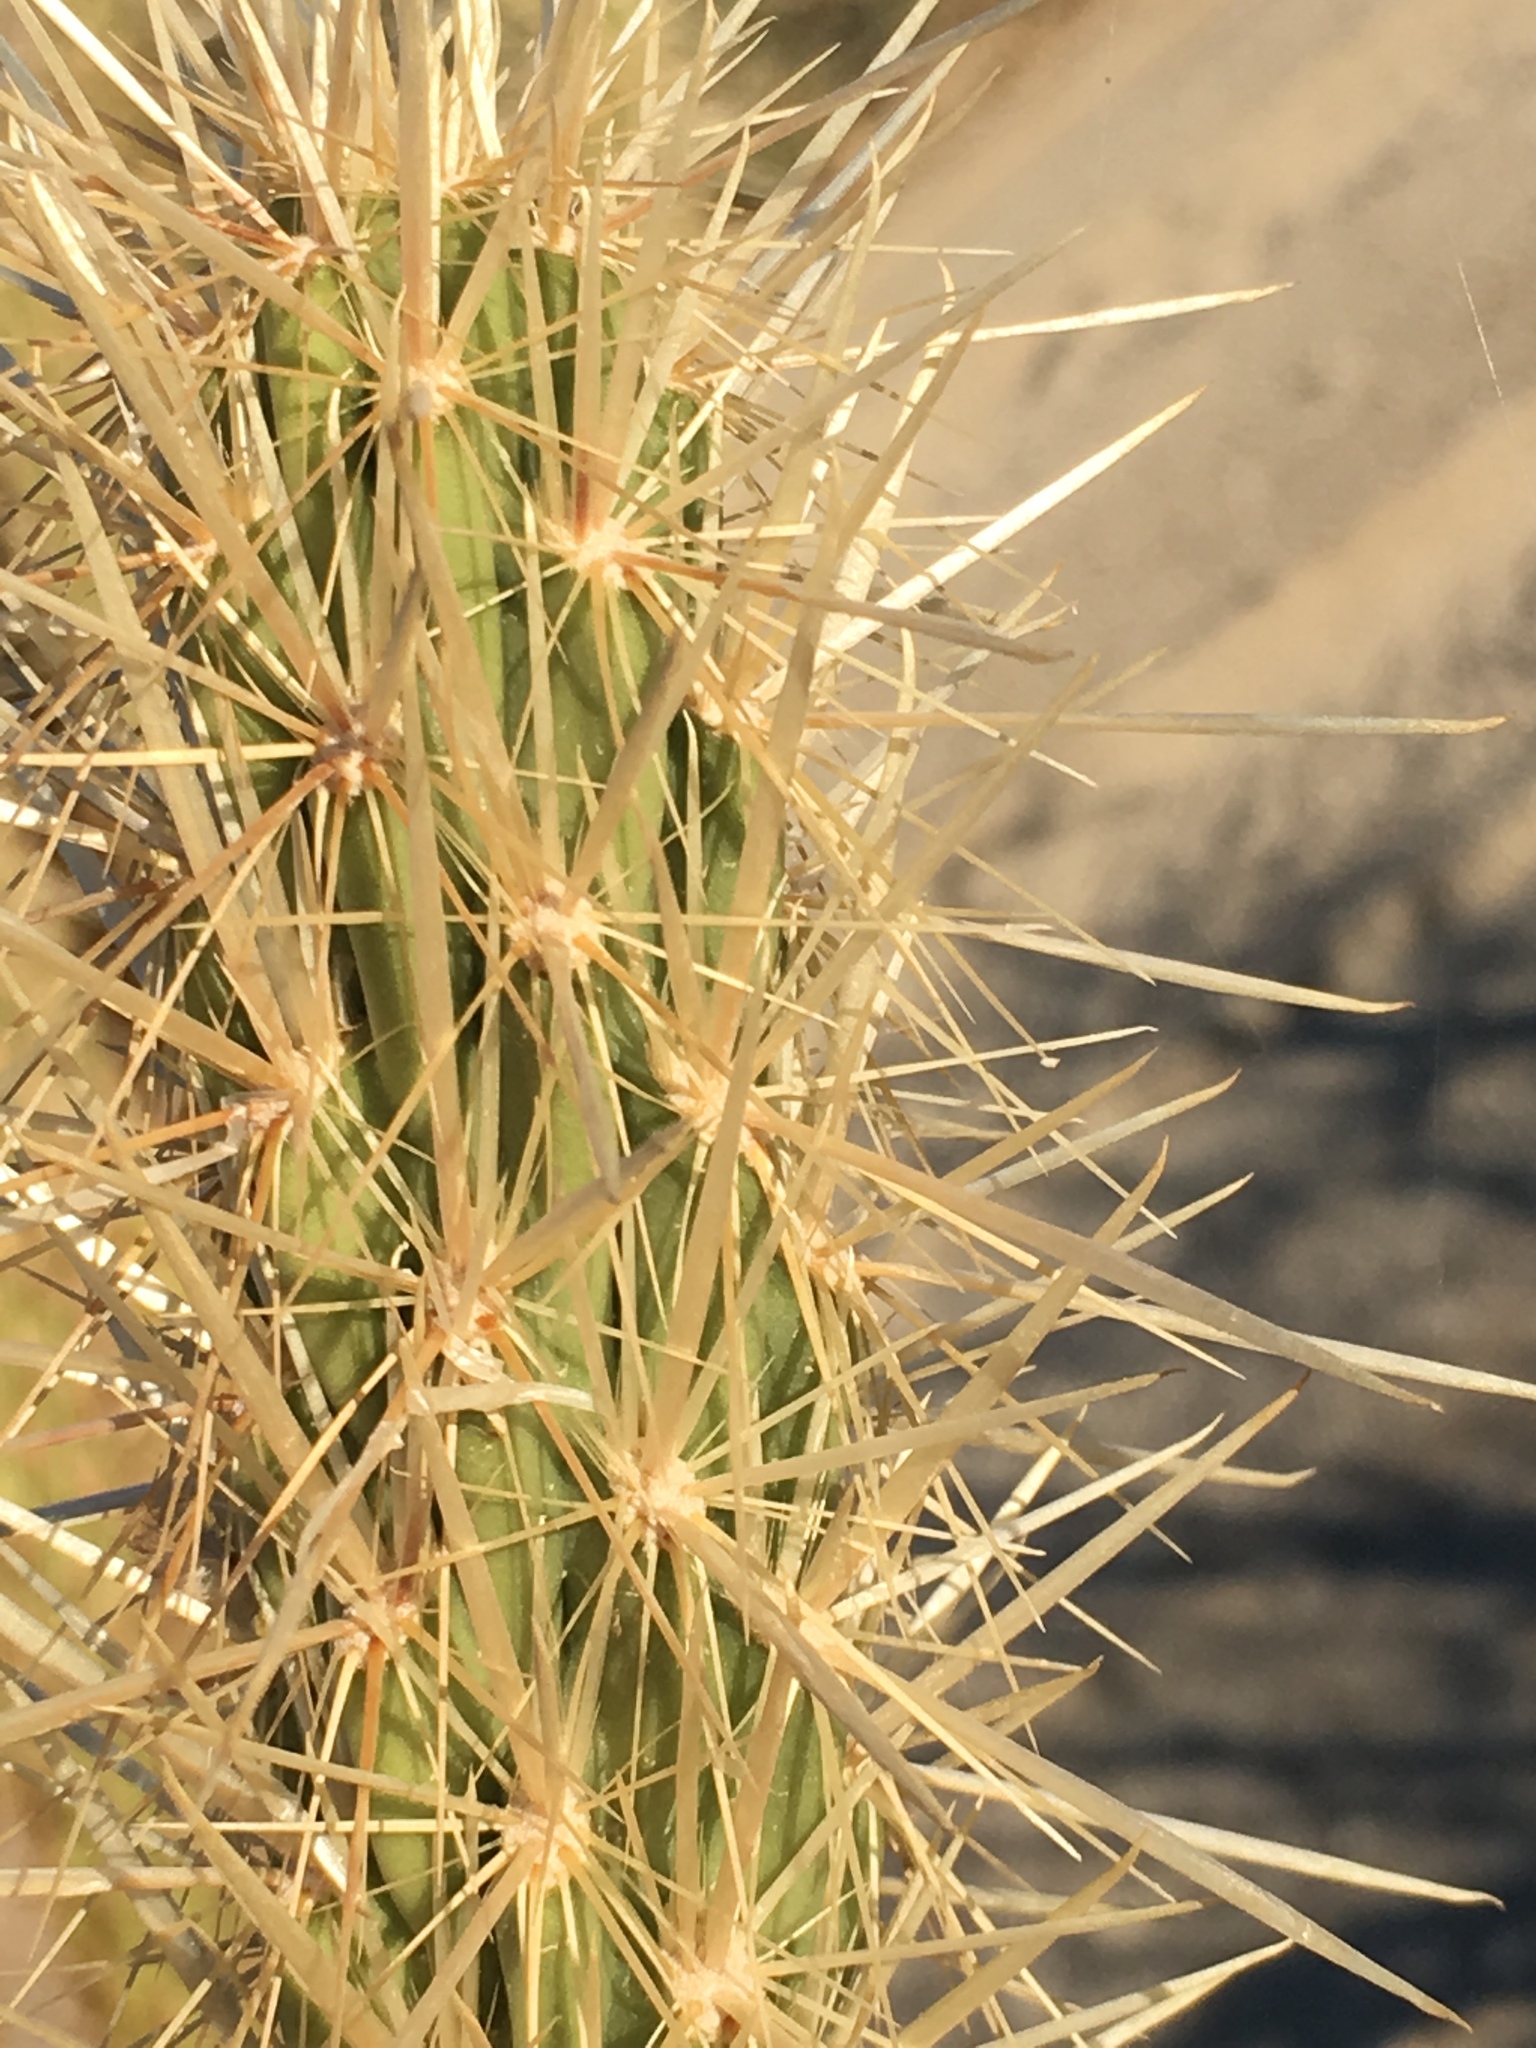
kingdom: Plantae
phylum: Tracheophyta
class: Magnoliopsida
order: Caryophyllales
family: Cactaceae
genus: Cylindropuntia
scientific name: Cylindropuntia ganderi
